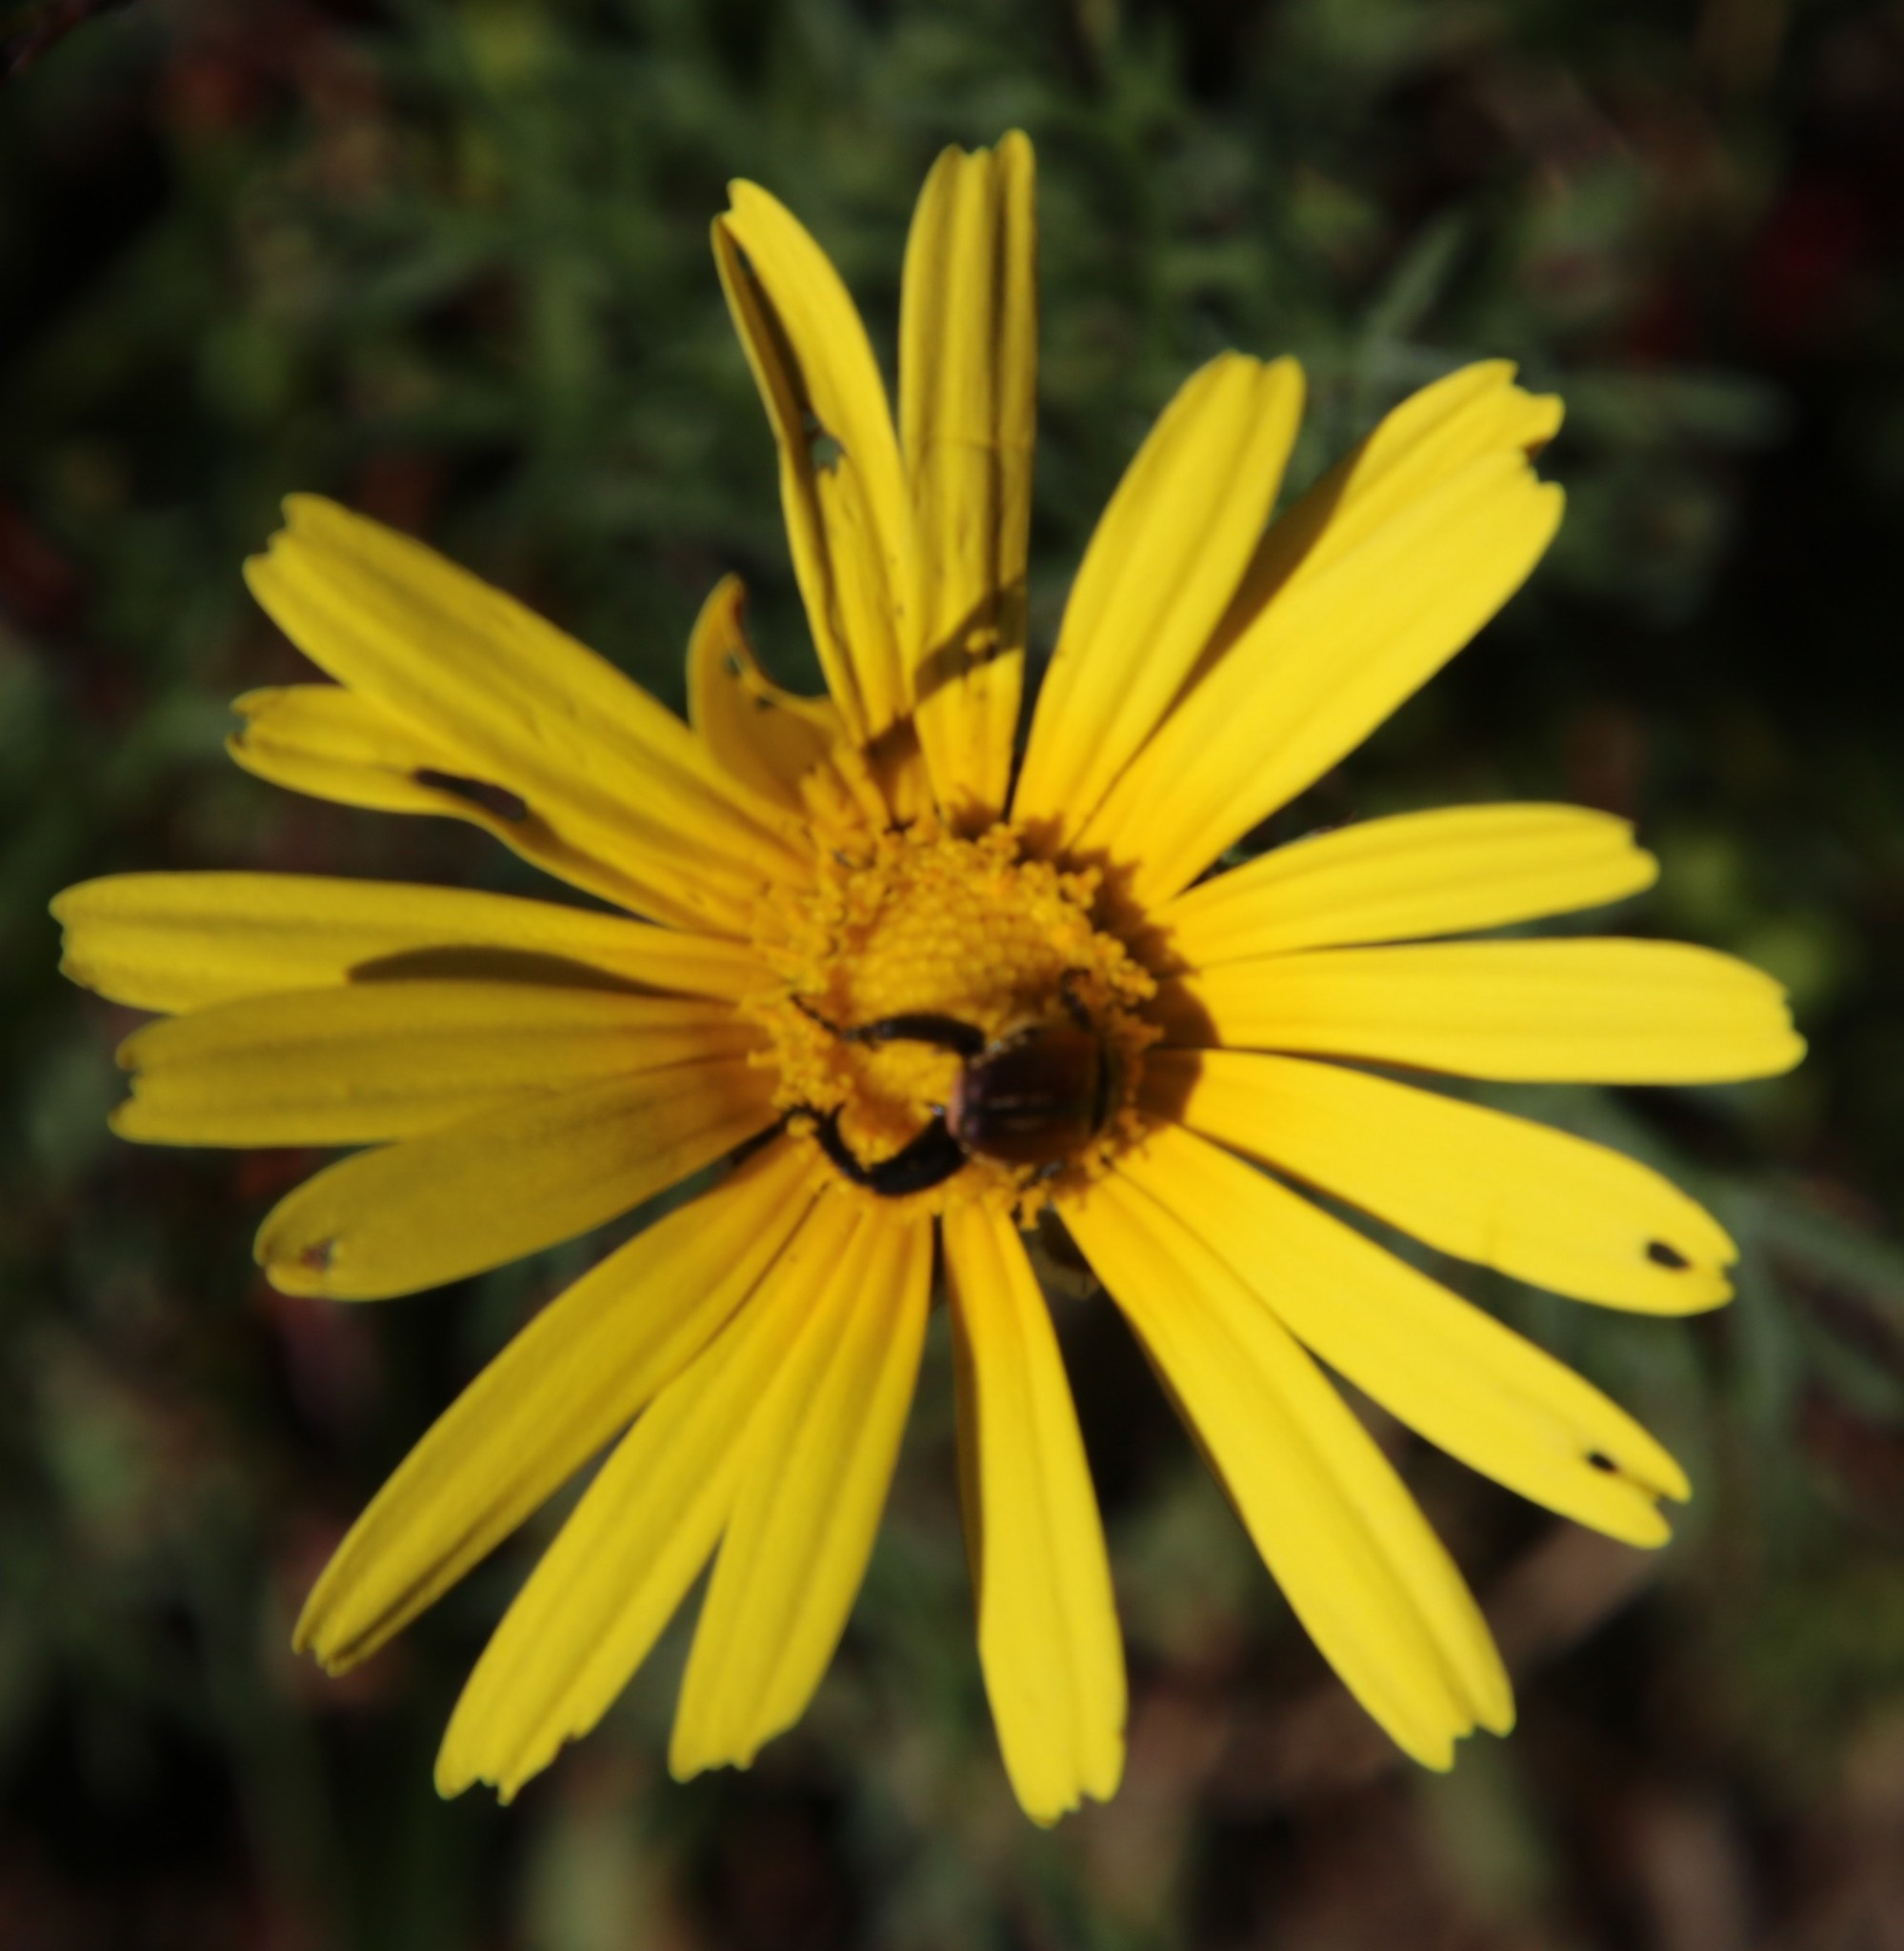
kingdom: Plantae
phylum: Tracheophyta
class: Magnoliopsida
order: Asterales
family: Asteraceae
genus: Ursinia
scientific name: Ursinia paleacea
